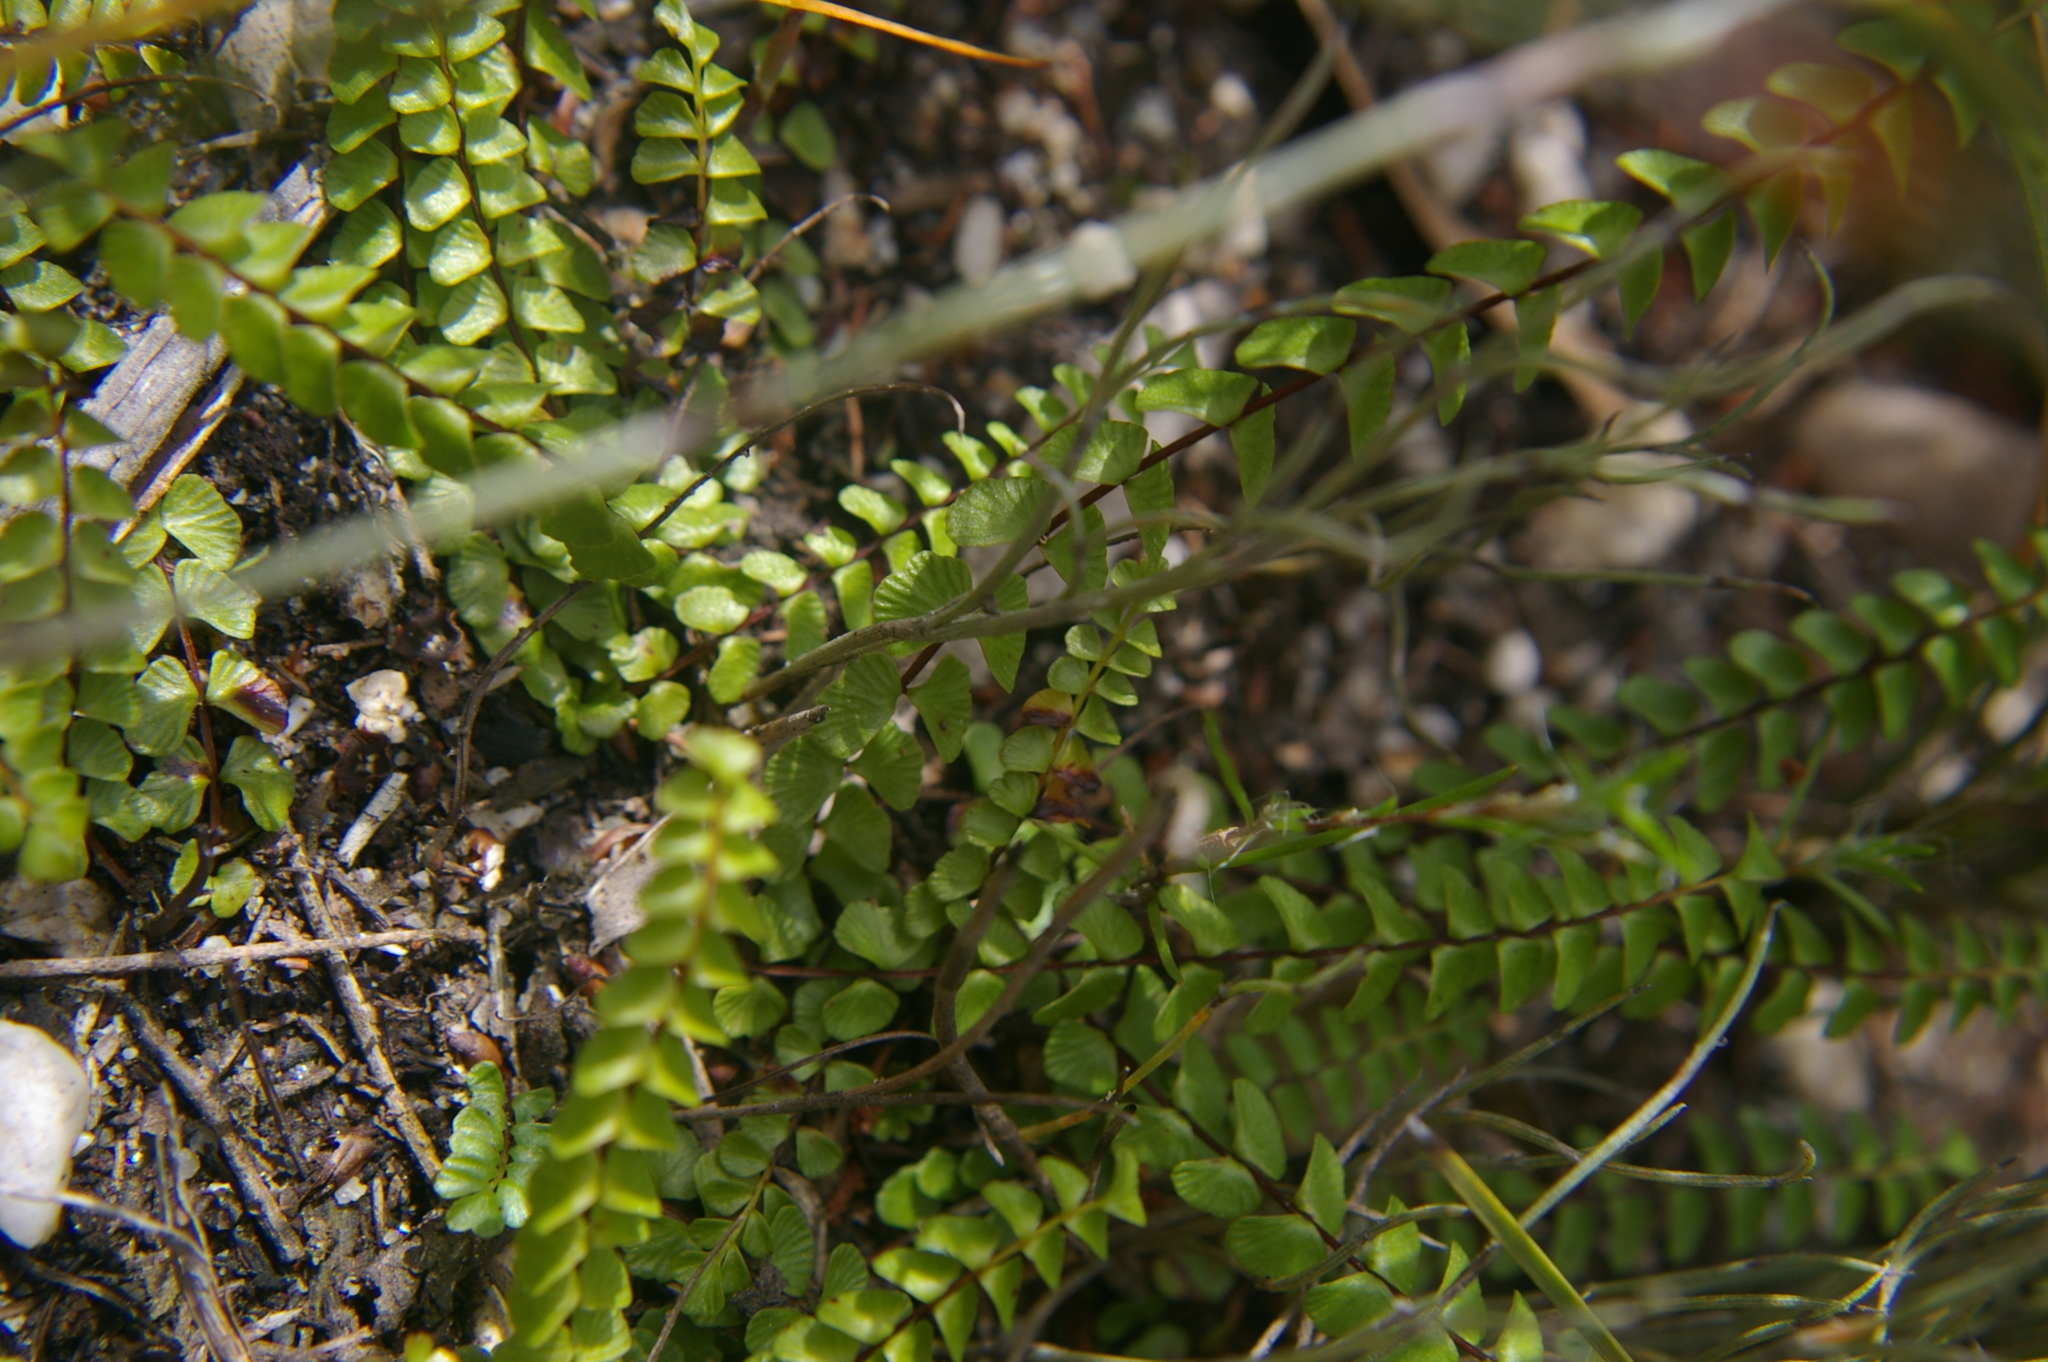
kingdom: Plantae
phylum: Tracheophyta
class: Polypodiopsida
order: Polypodiales
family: Lindsaeaceae
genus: Lindsaea
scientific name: Lindsaea linearis
